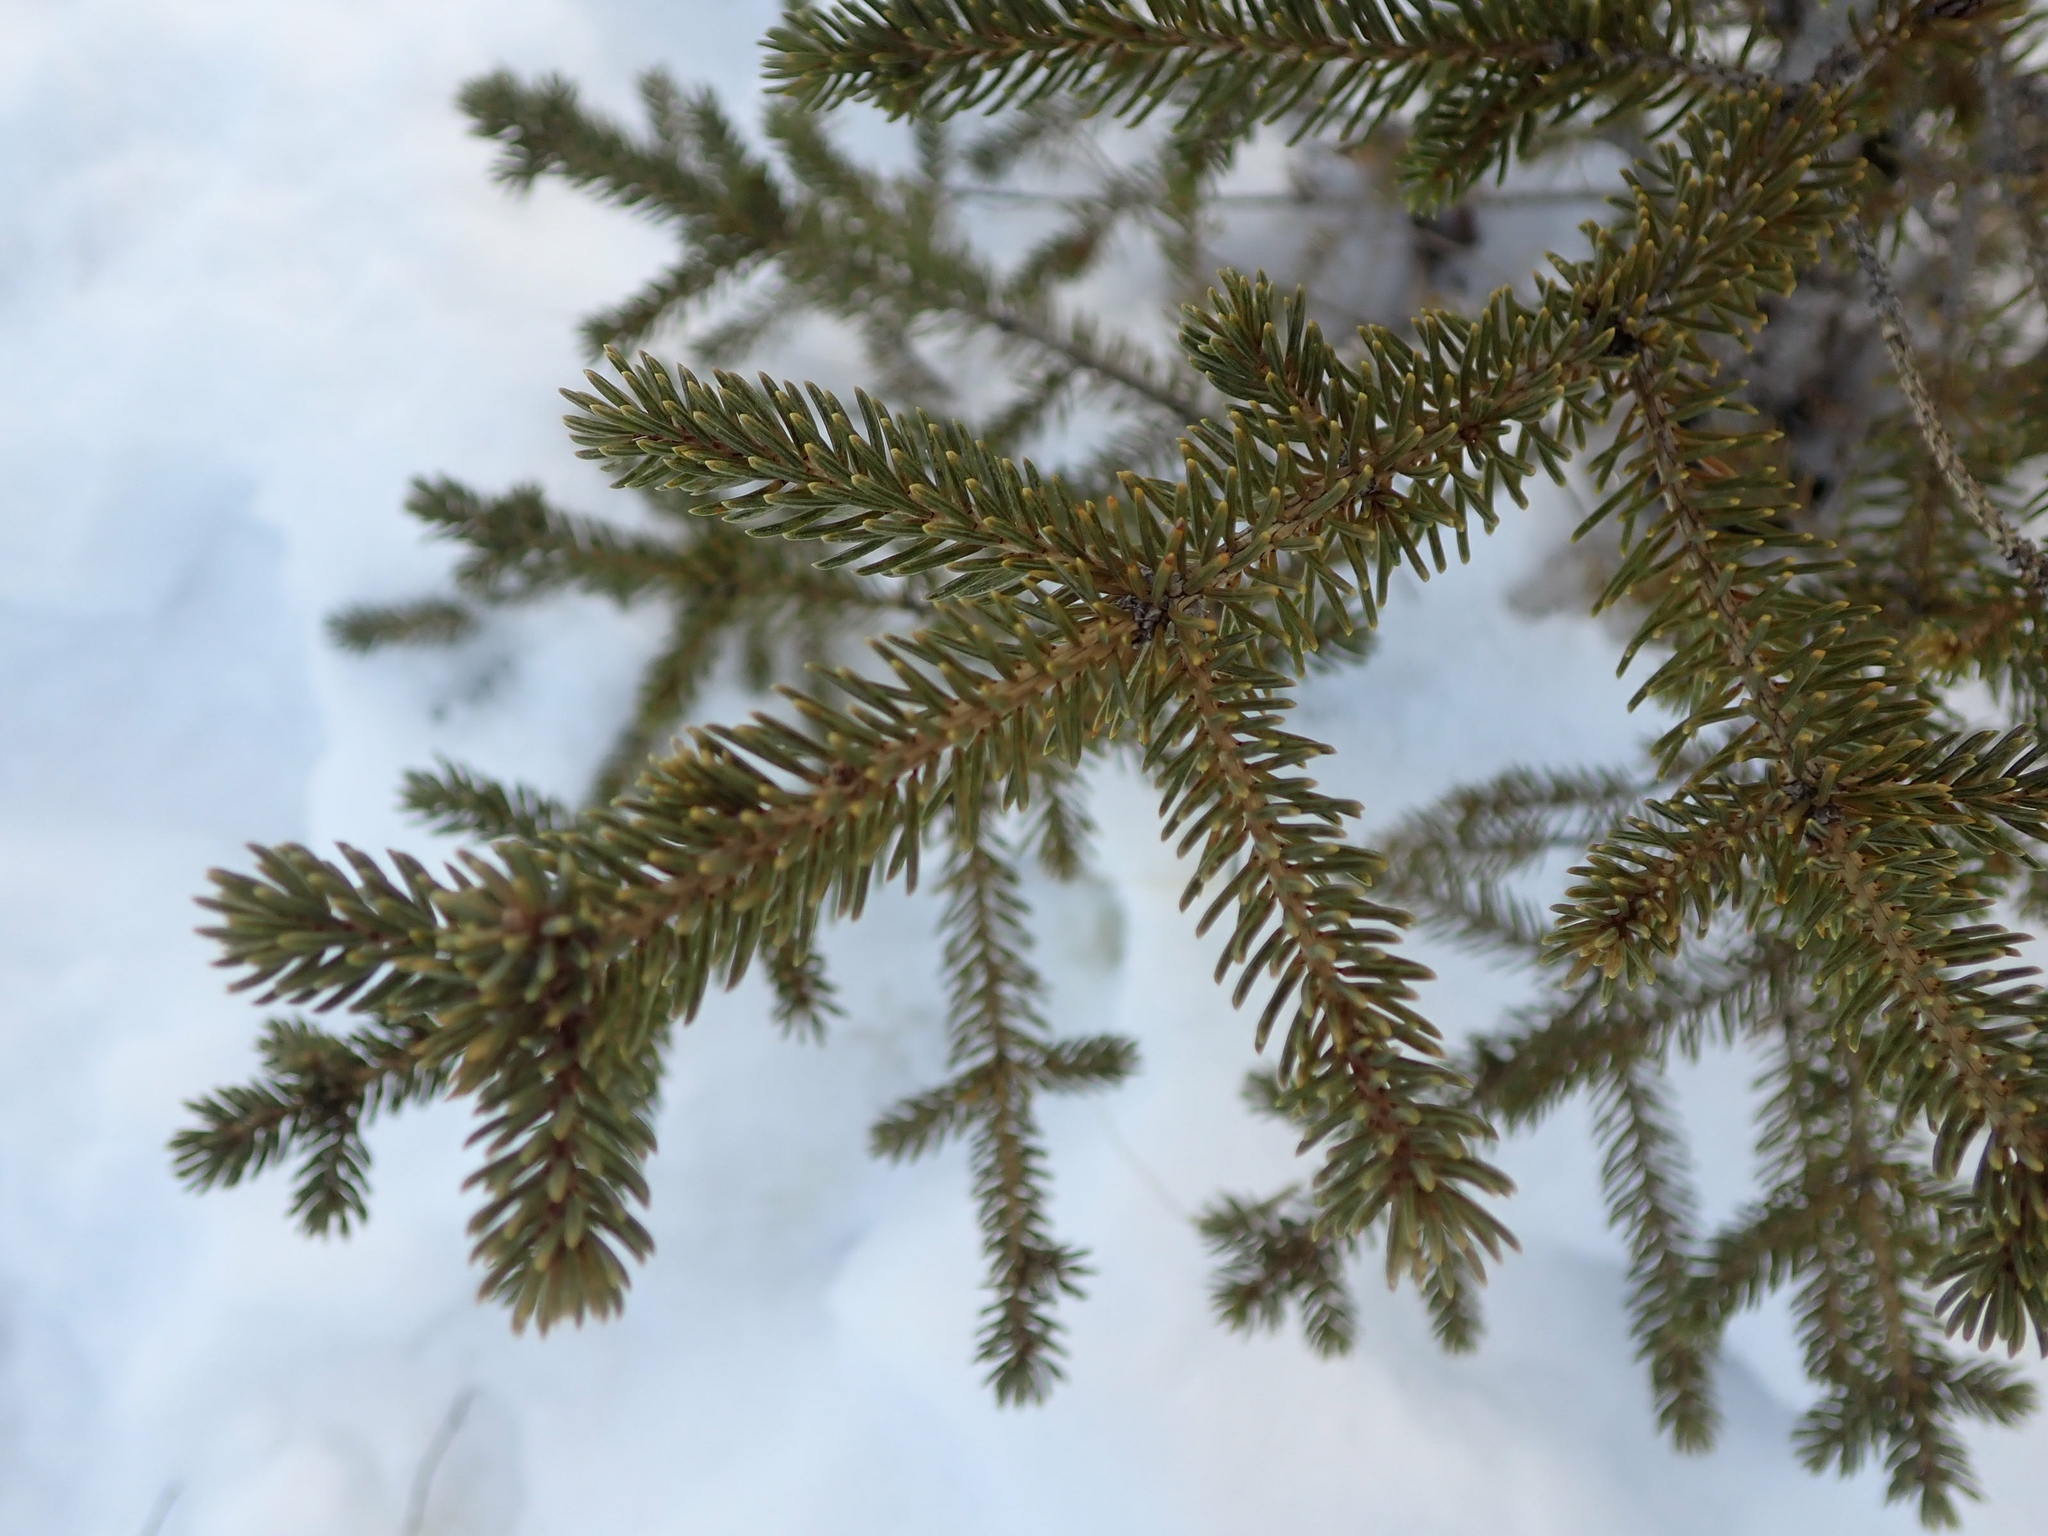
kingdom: Plantae
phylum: Tracheophyta
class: Pinopsida
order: Pinales
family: Pinaceae
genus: Picea
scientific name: Picea glauca
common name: White spruce
